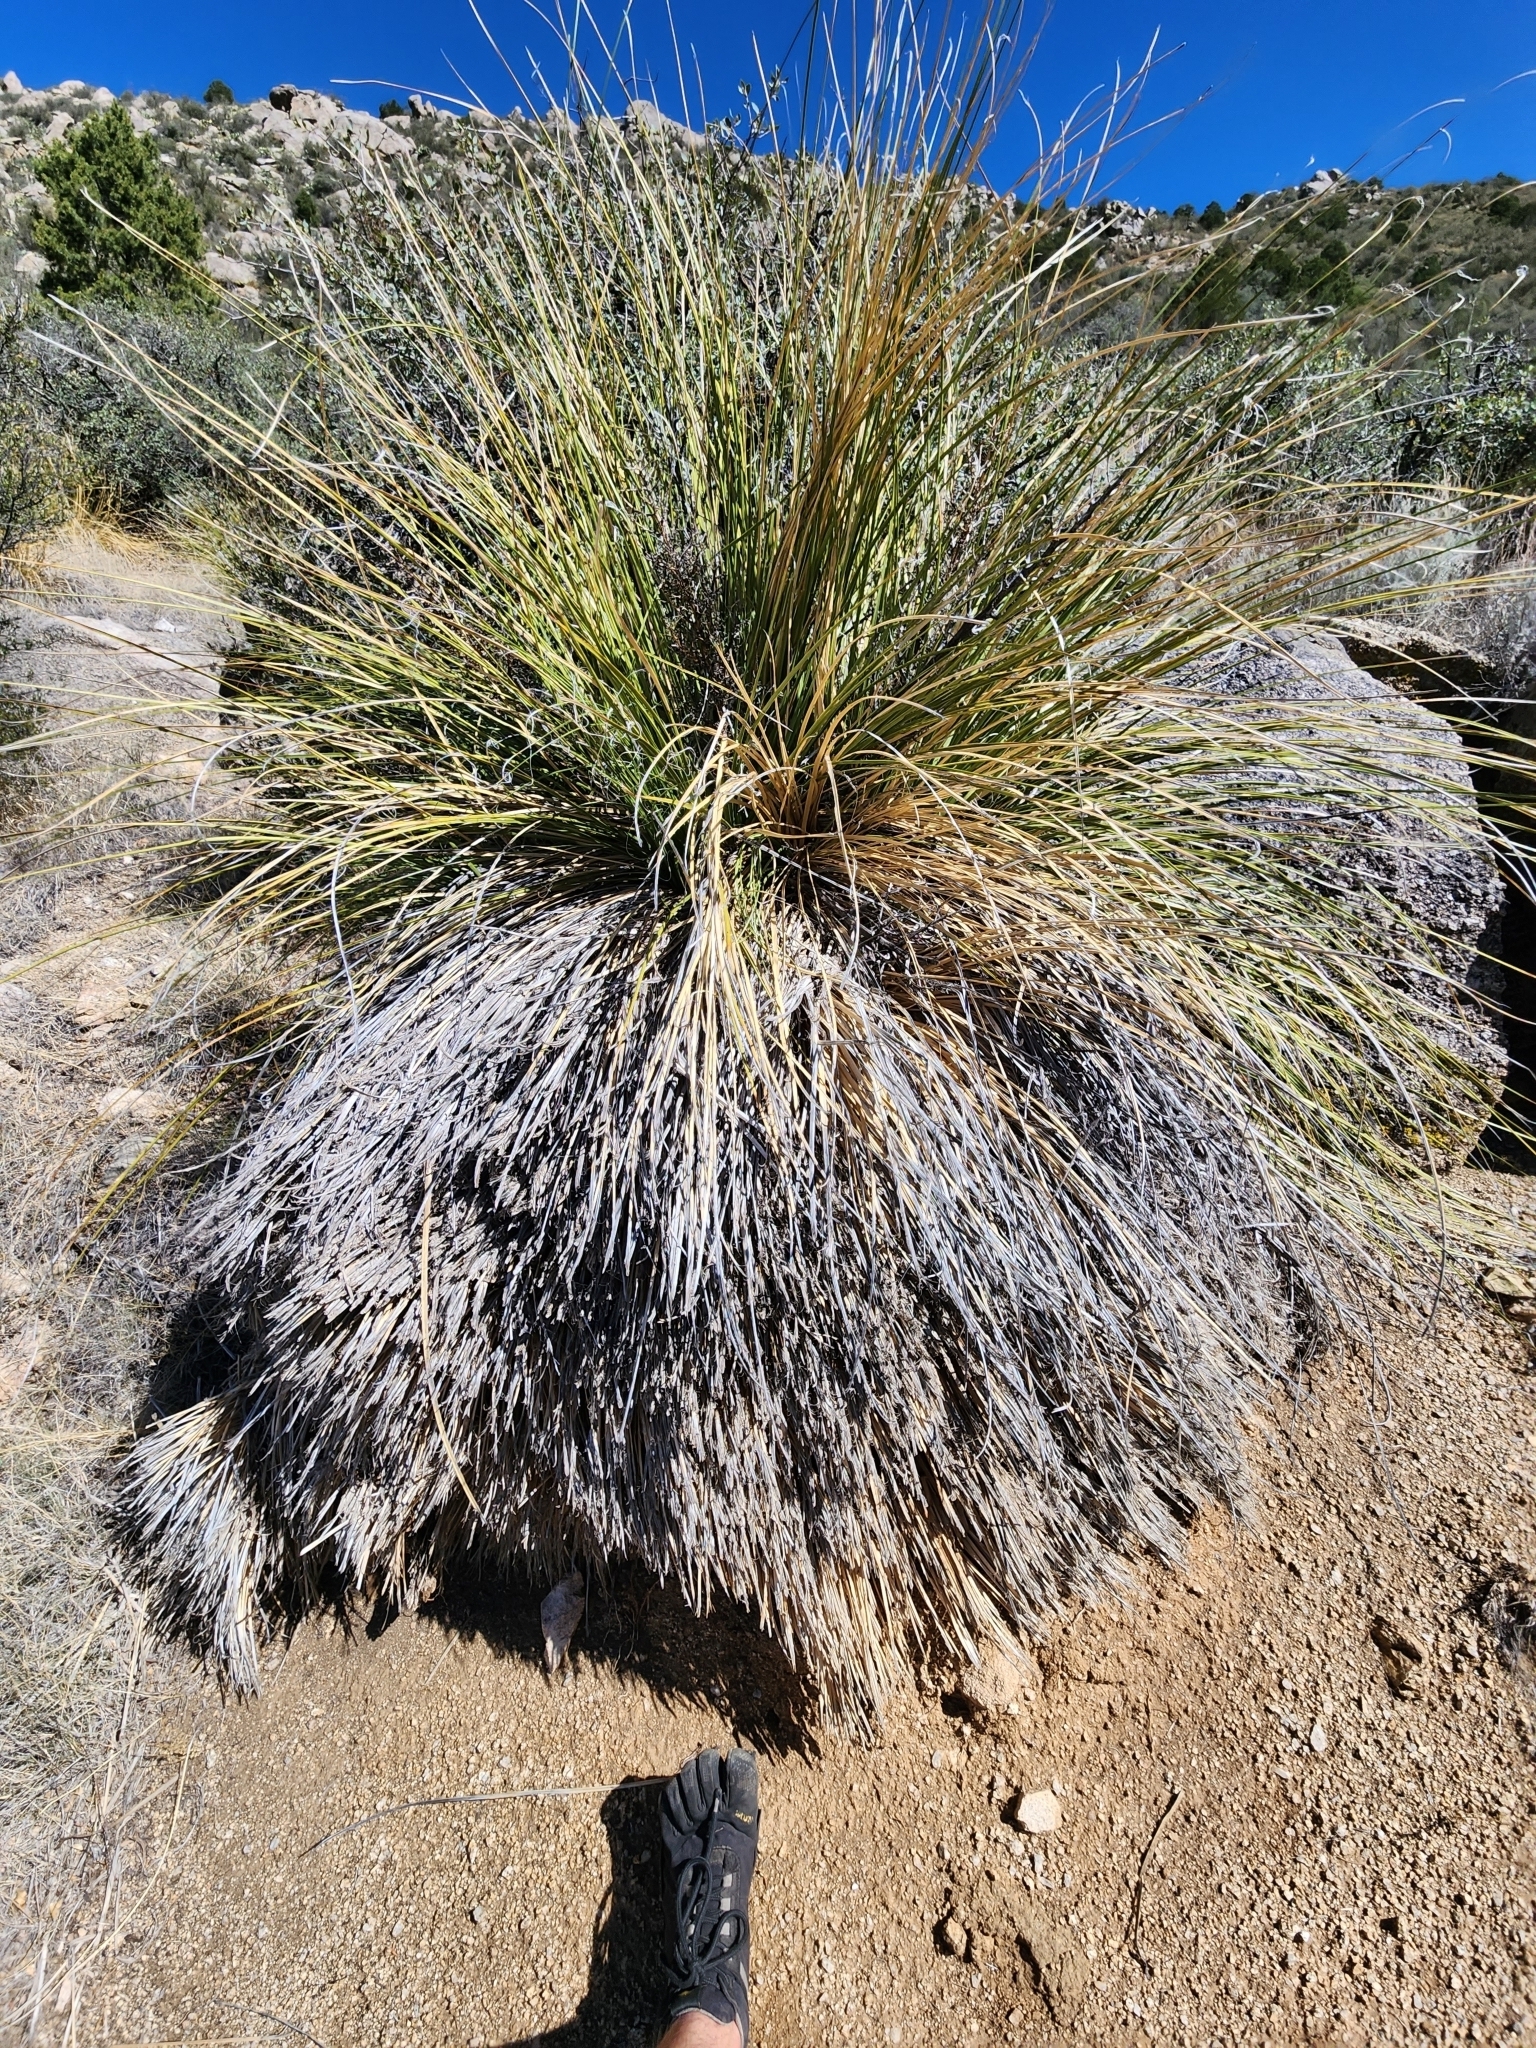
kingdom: Plantae
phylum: Tracheophyta
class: Liliopsida
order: Asparagales
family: Asparagaceae
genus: Nolina
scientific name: Nolina greenei
